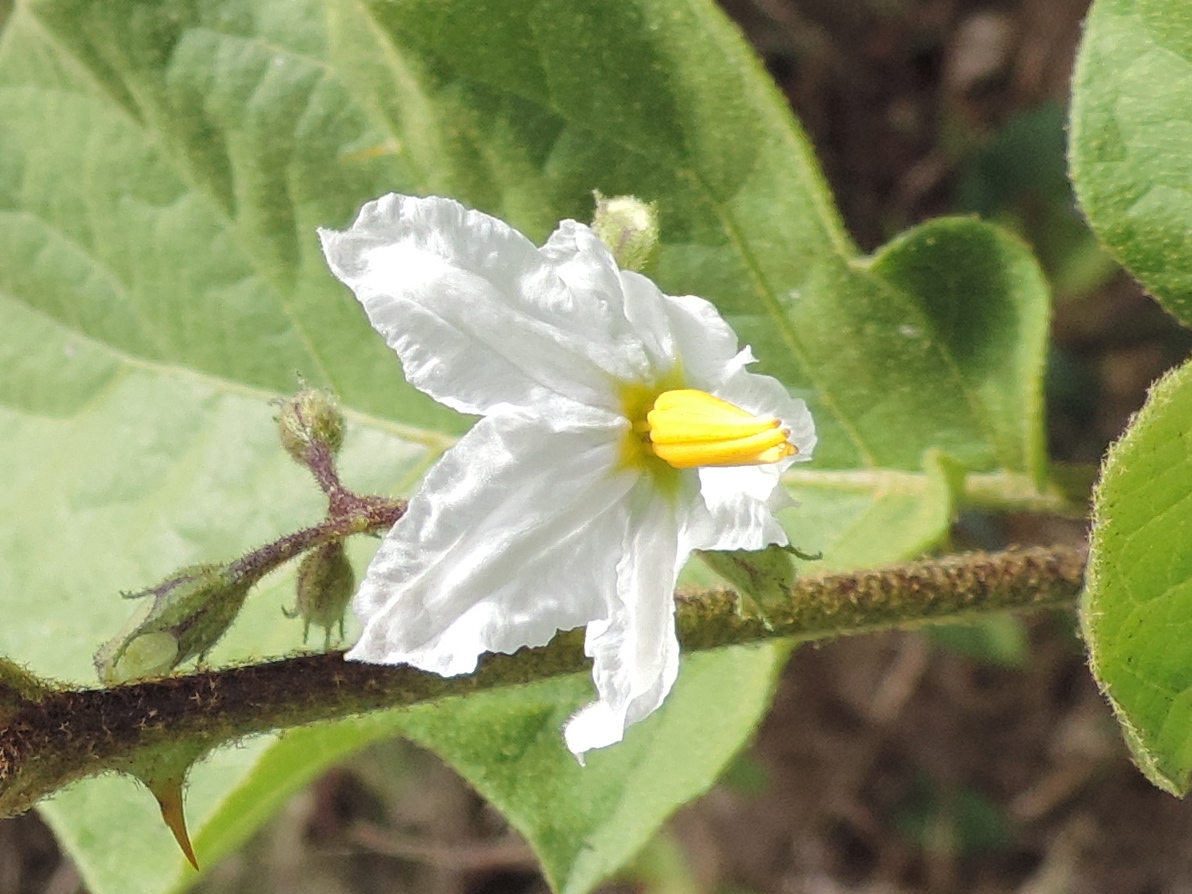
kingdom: Plantae
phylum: Tracheophyta
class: Magnoliopsida
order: Solanales
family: Solanaceae
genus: Solanum
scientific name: Solanum ferrugineum
